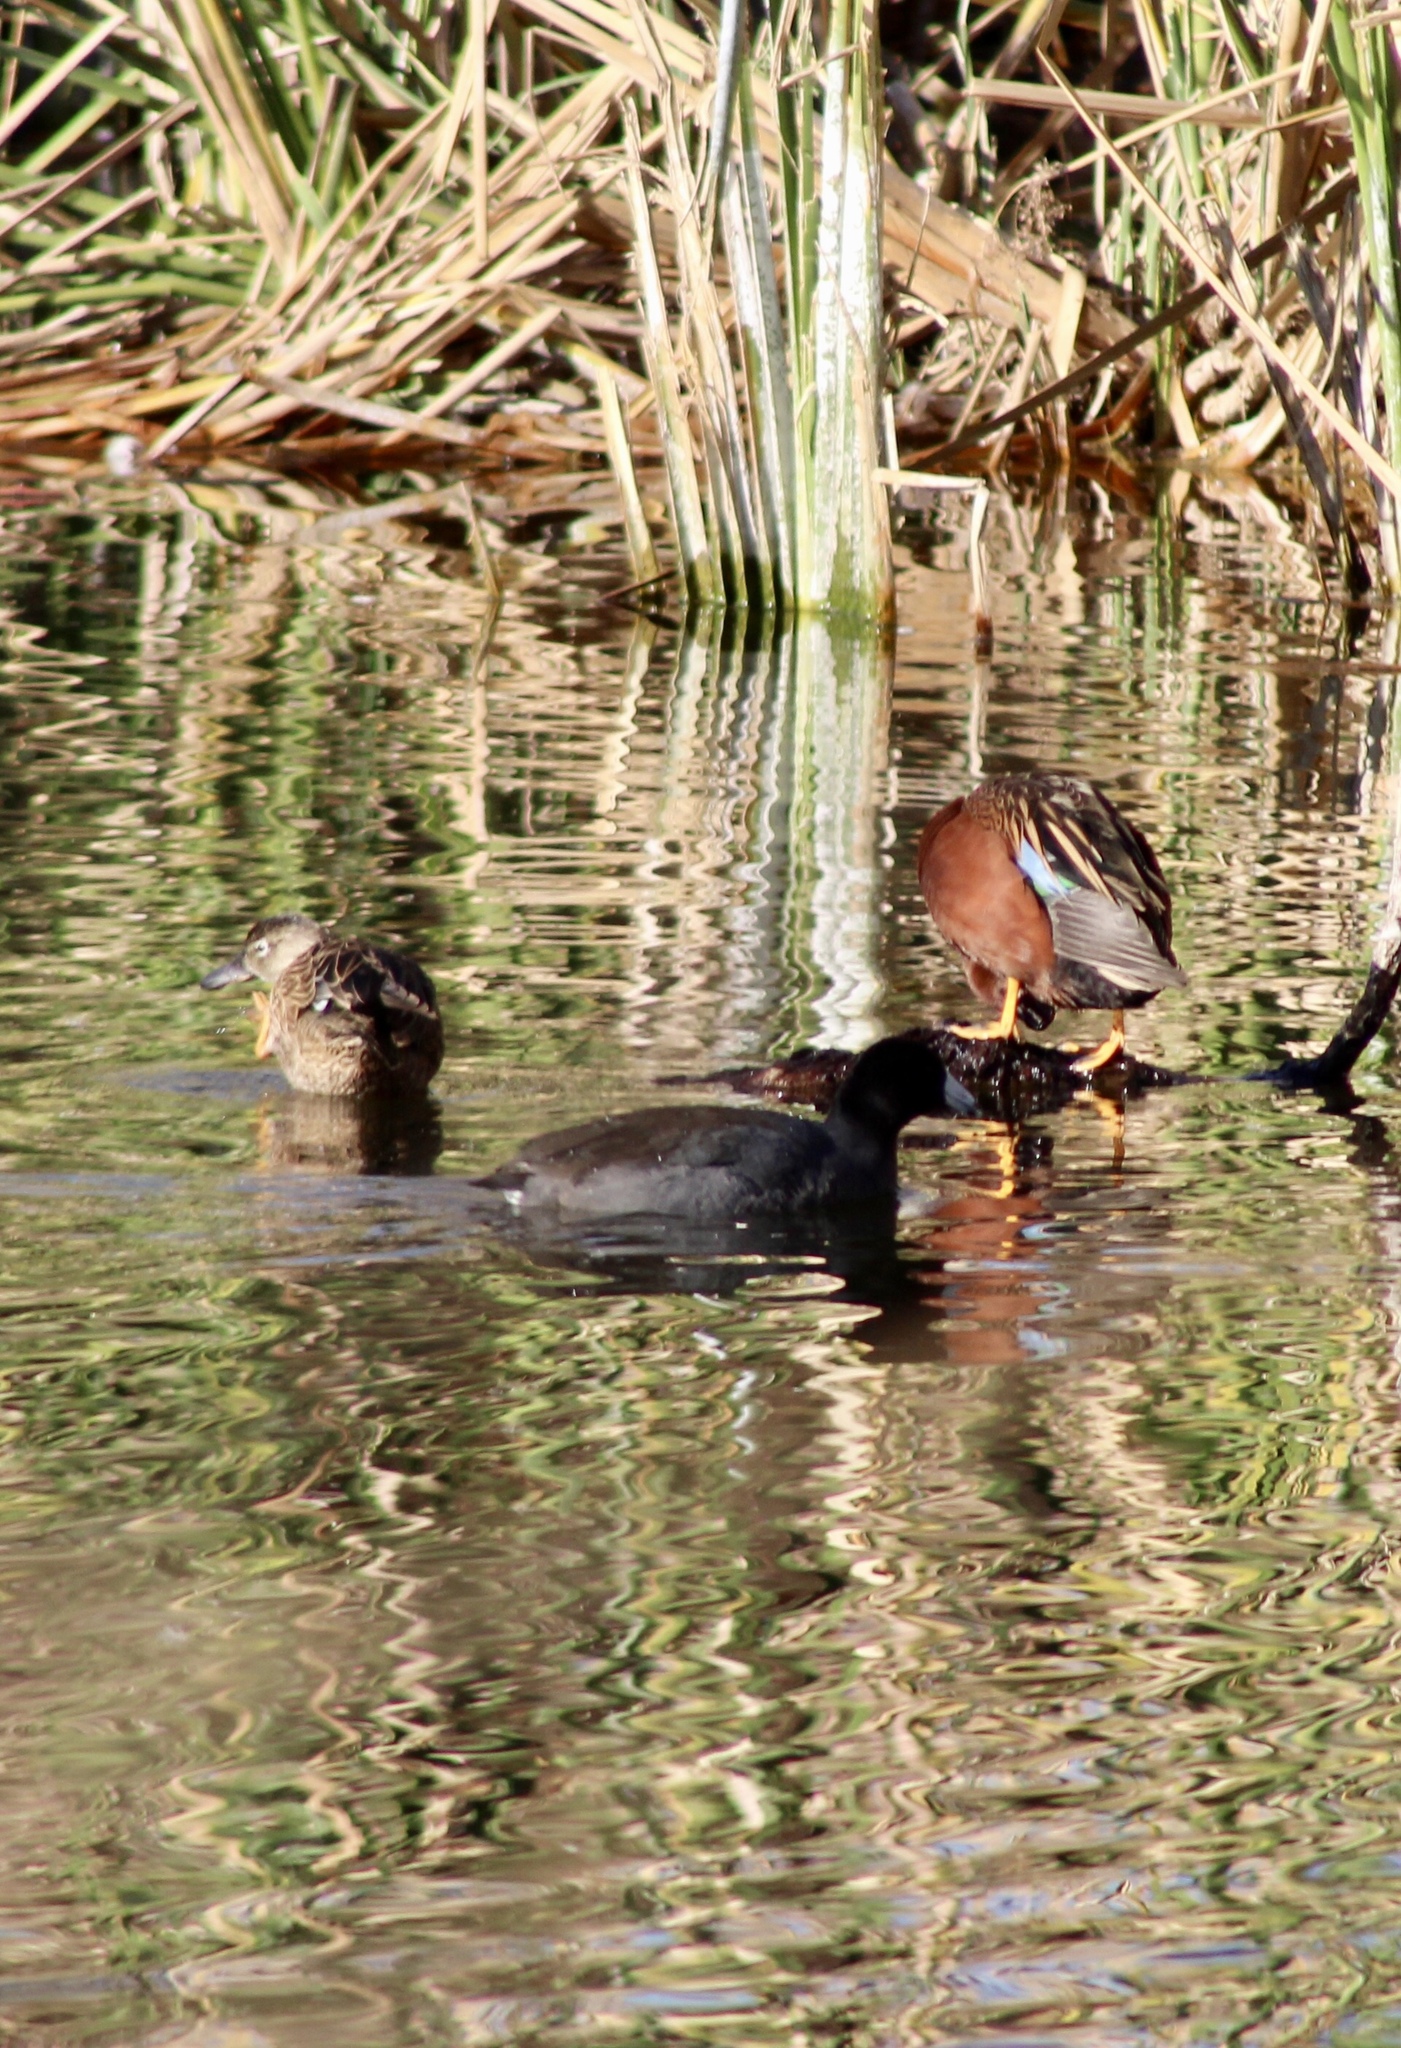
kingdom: Animalia
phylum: Chordata
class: Aves
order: Gruiformes
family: Rallidae
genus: Fulica
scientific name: Fulica americana
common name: American coot
